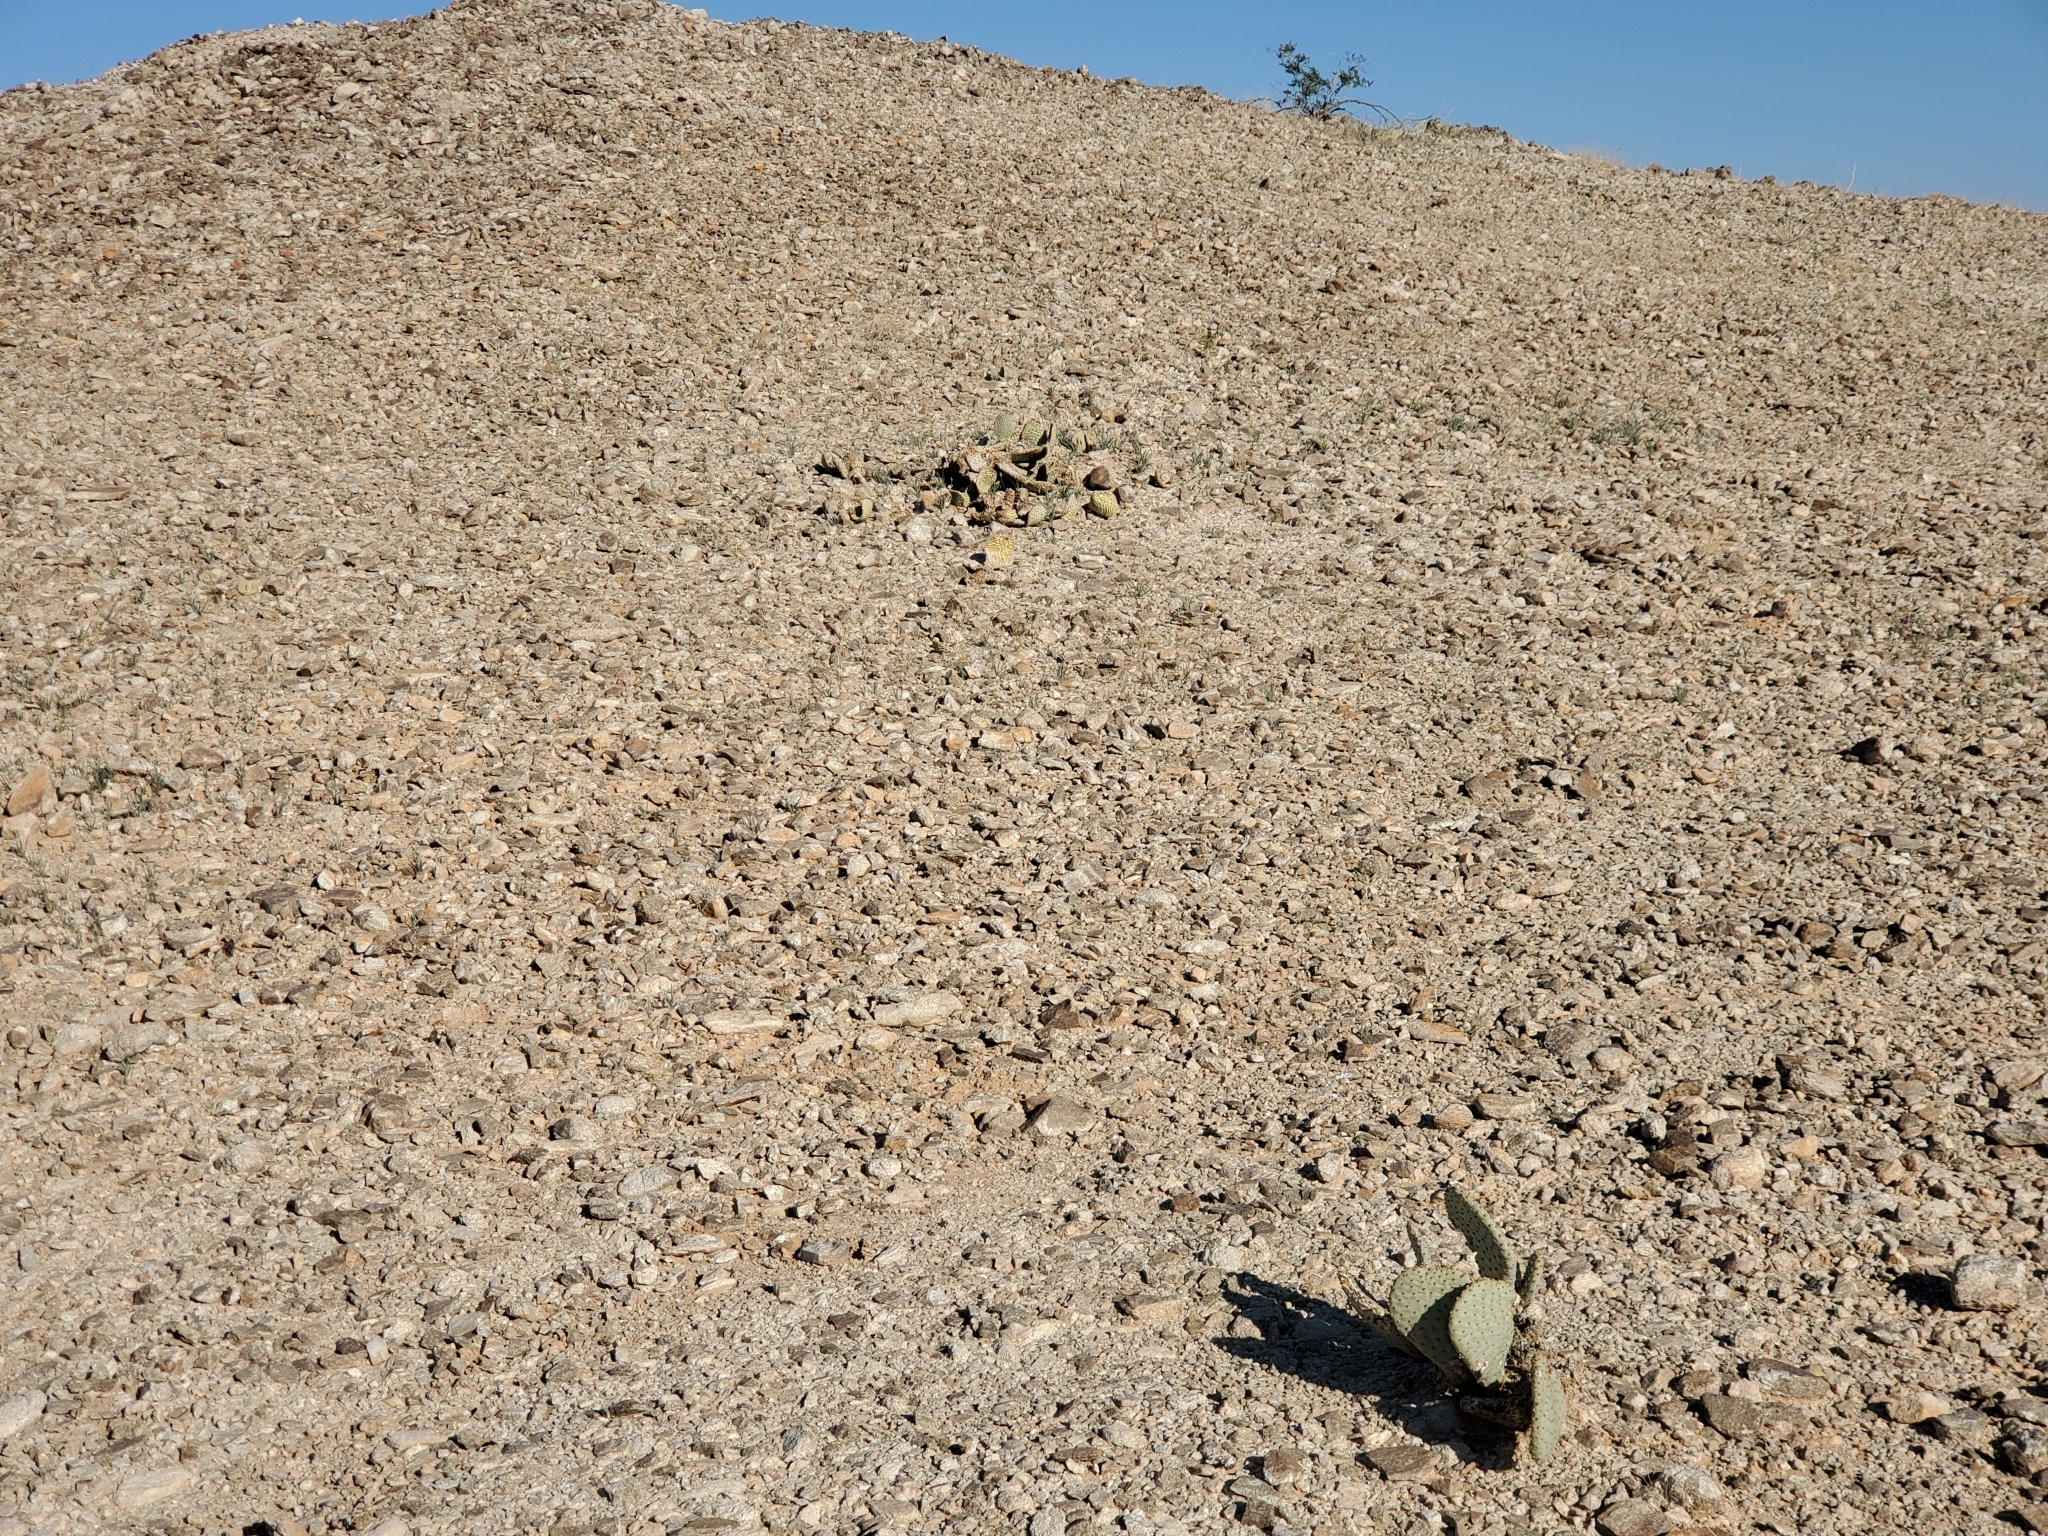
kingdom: Plantae
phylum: Tracheophyta
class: Magnoliopsida
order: Caryophyllales
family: Cactaceae
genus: Opuntia
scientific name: Opuntia basilaris
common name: Beavertail prickly-pear
